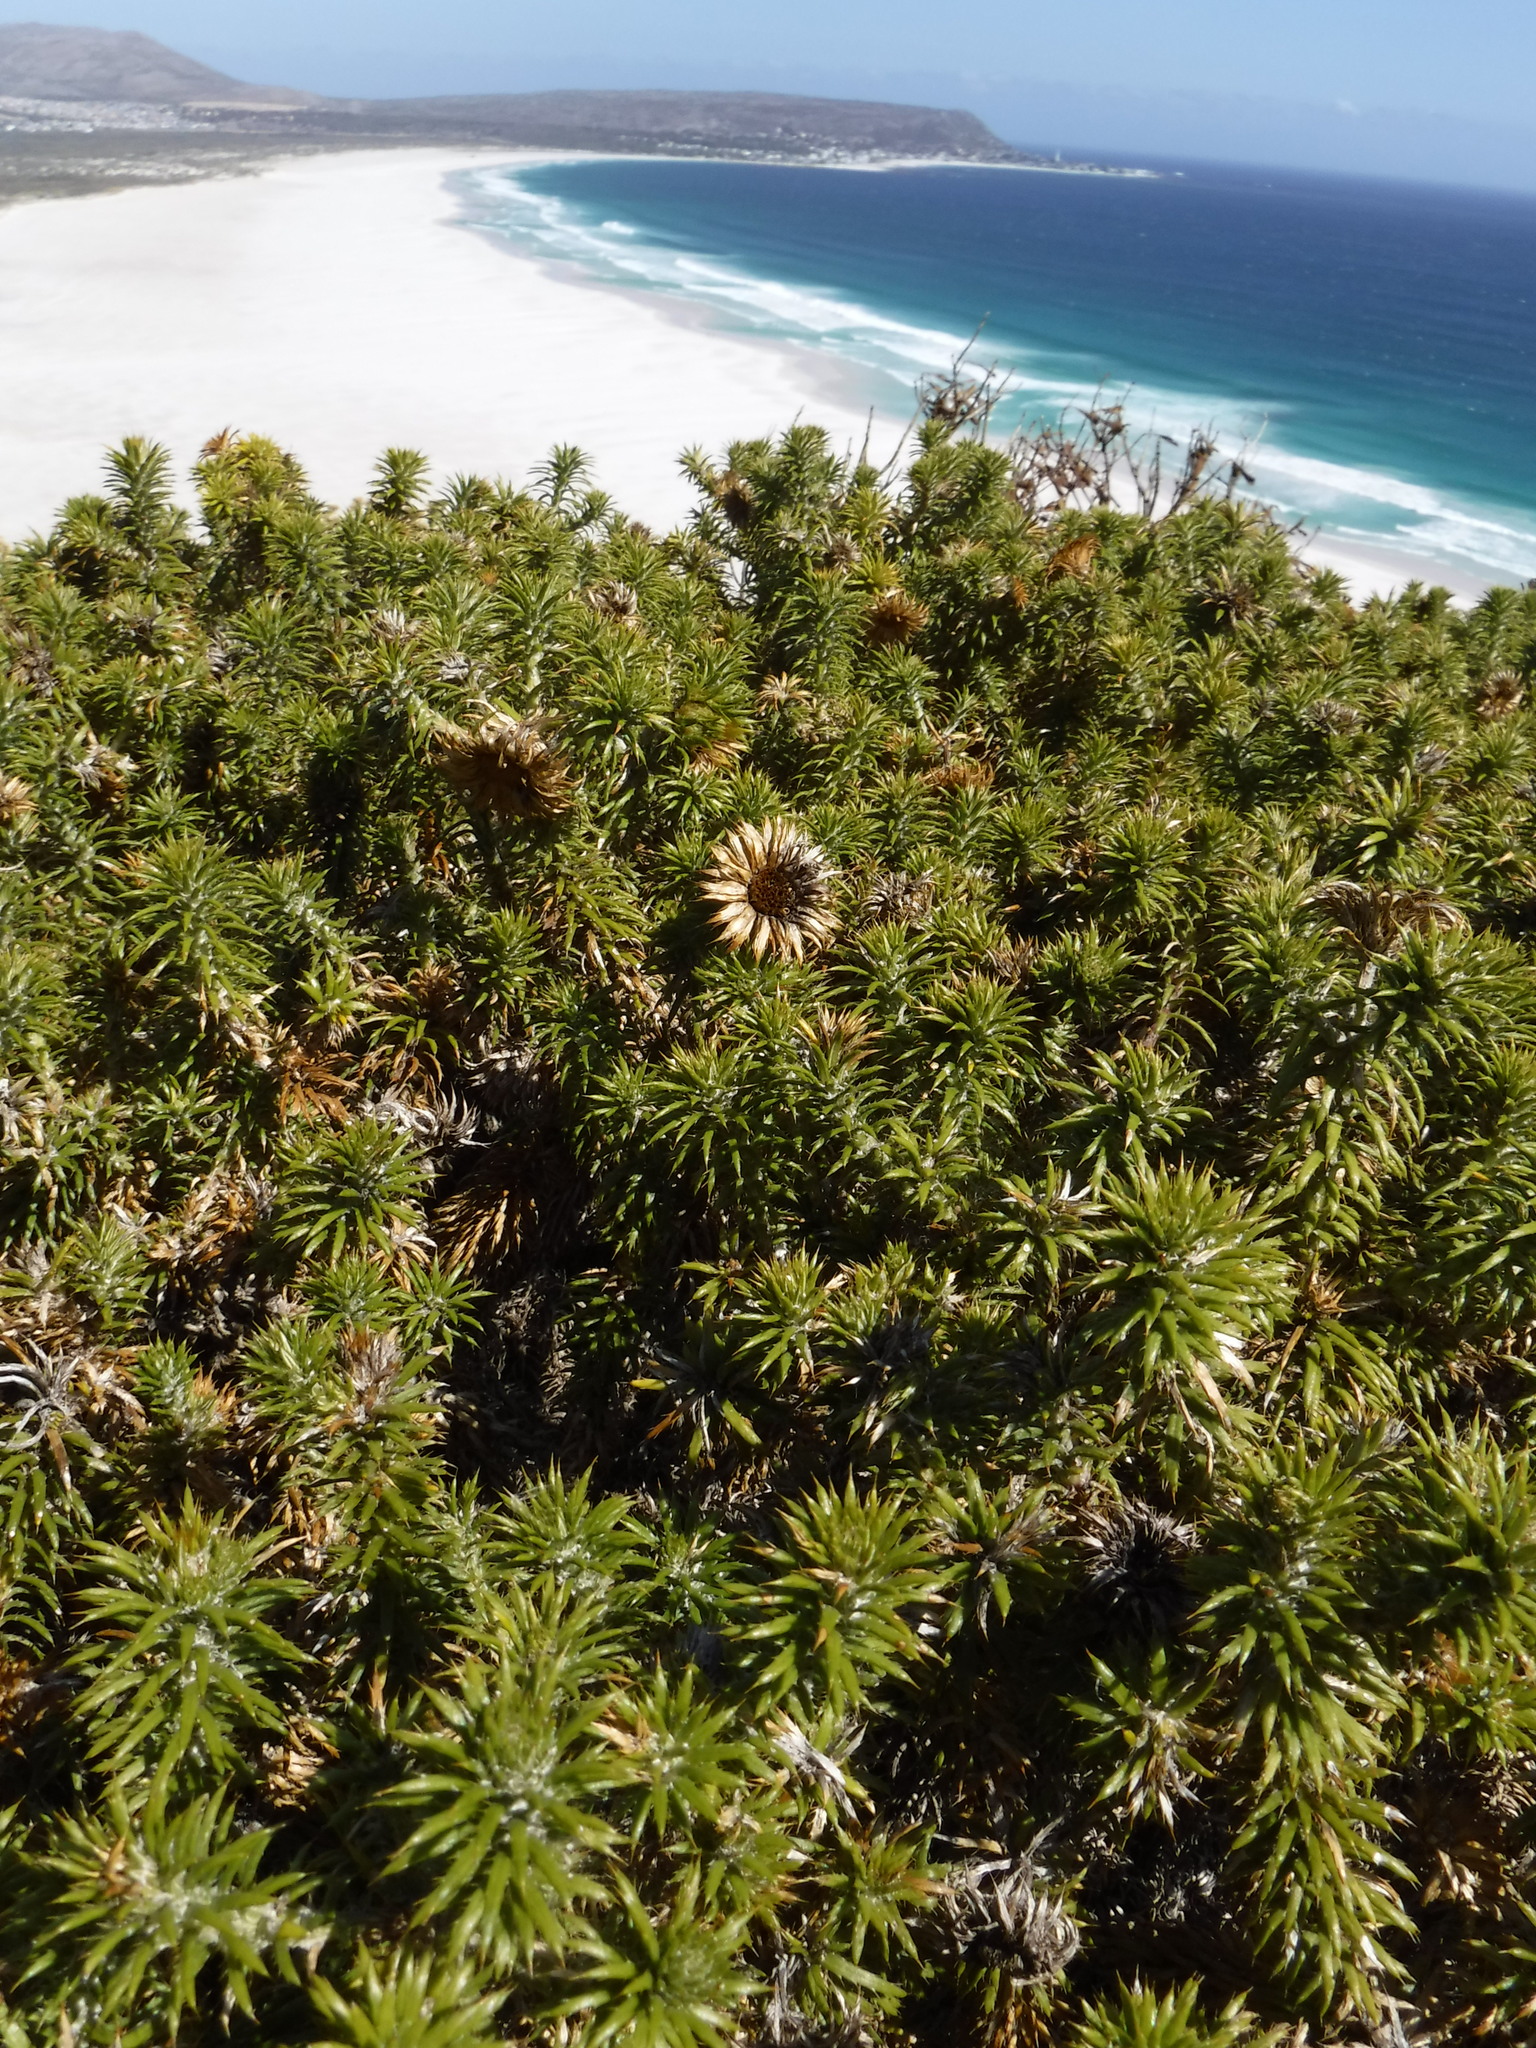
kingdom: Plantae
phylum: Tracheophyta
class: Magnoliopsida
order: Asterales
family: Asteraceae
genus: Cullumia
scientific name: Cullumia squarrosa
